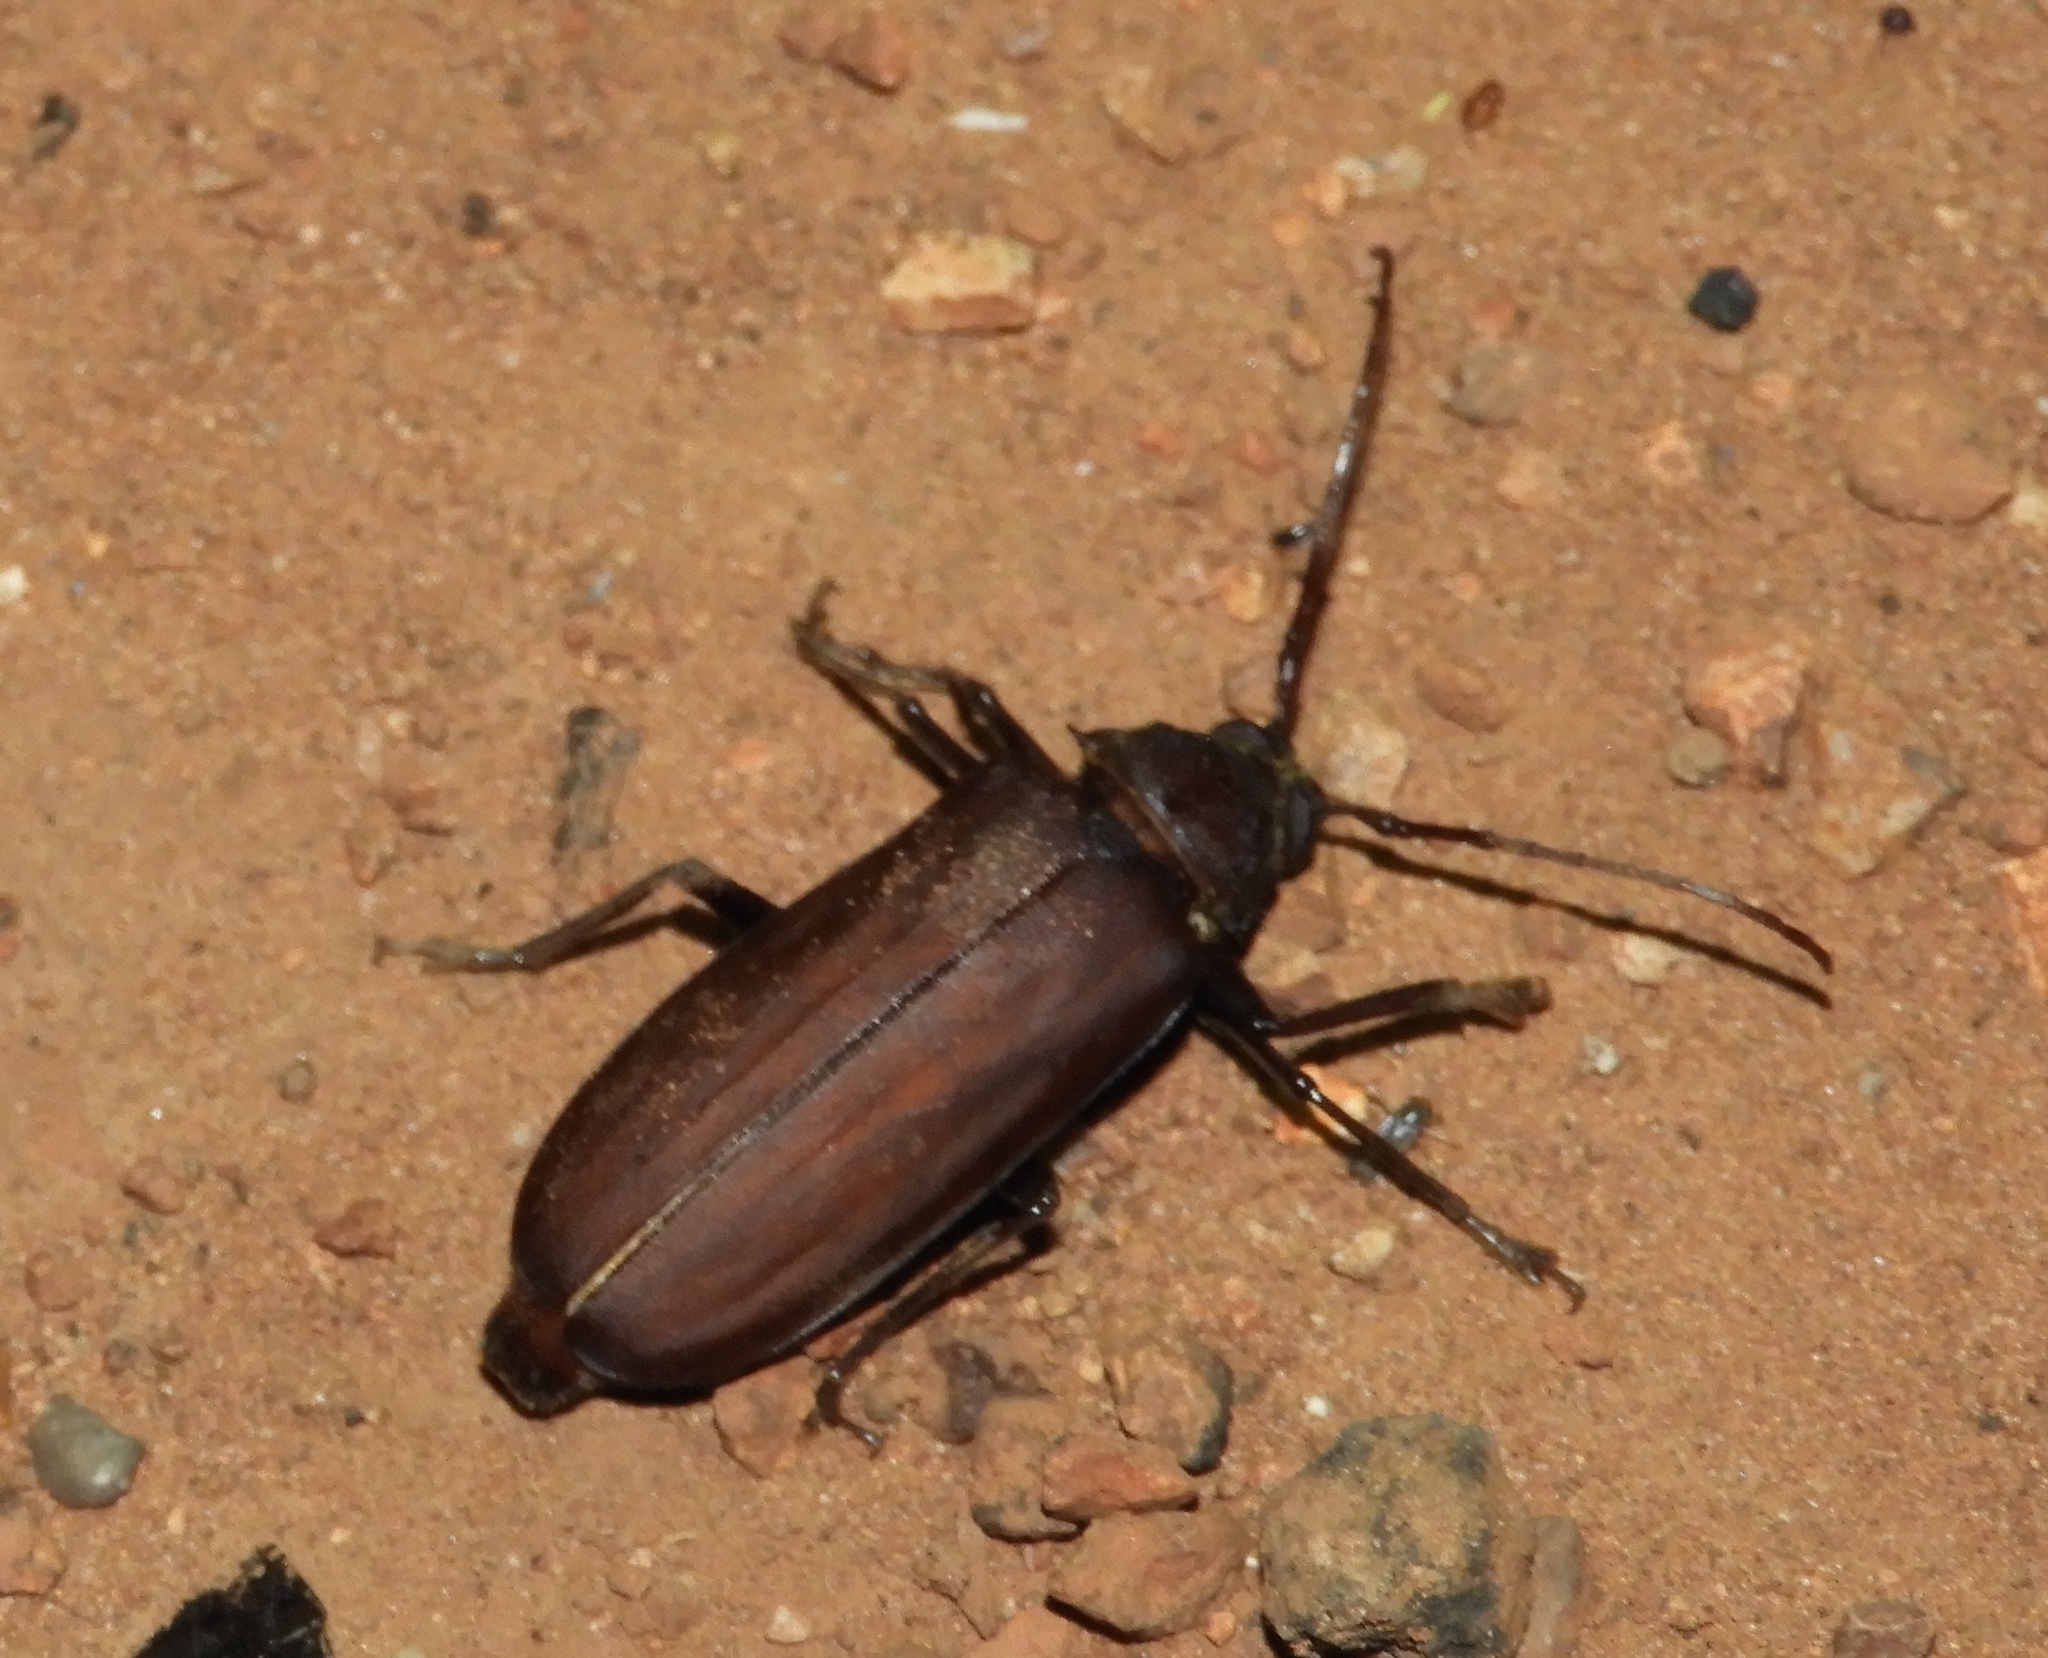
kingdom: Animalia
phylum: Arthropoda
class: Insecta
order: Coleoptera
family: Cerambycidae
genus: Strongylaspis
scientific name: Strongylaspis
